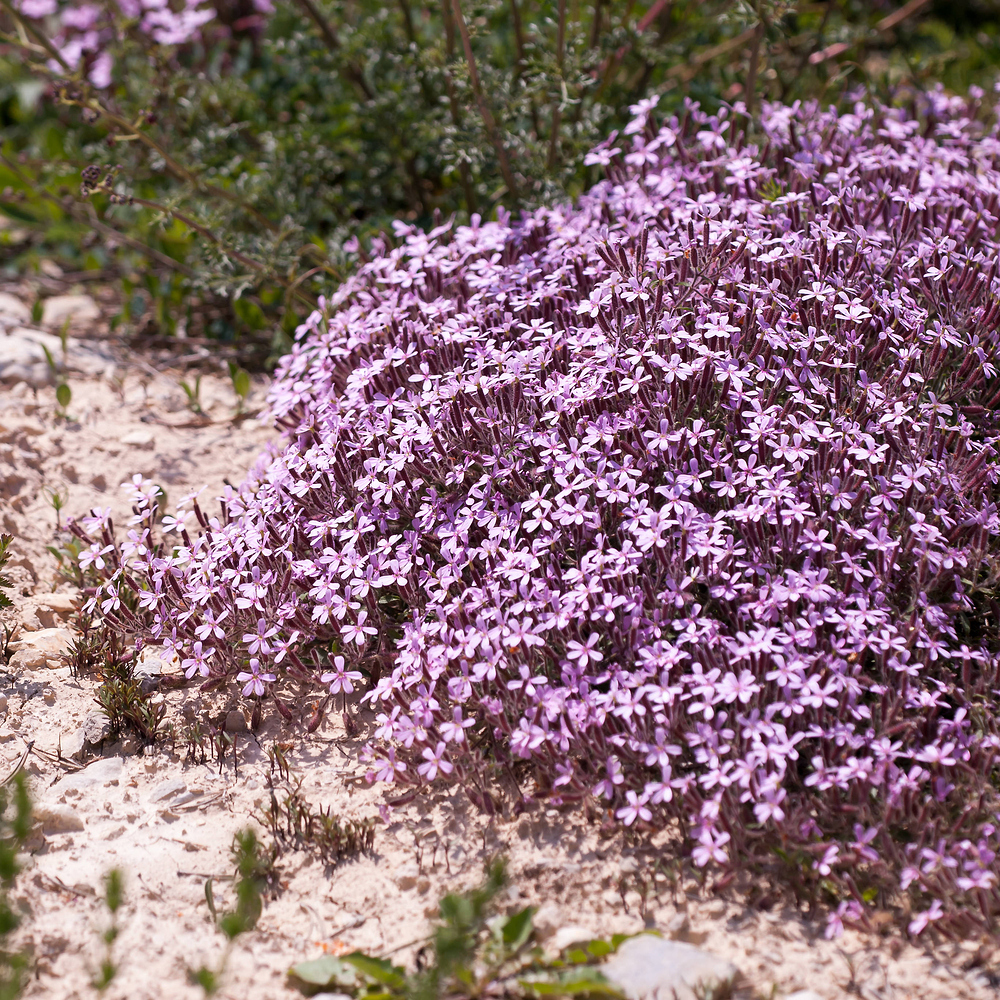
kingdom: Plantae
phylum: Tracheophyta
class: Magnoliopsida
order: Caryophyllales
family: Caryophyllaceae
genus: Saponaria
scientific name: Saponaria ocymoides
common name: Rock soapwort
